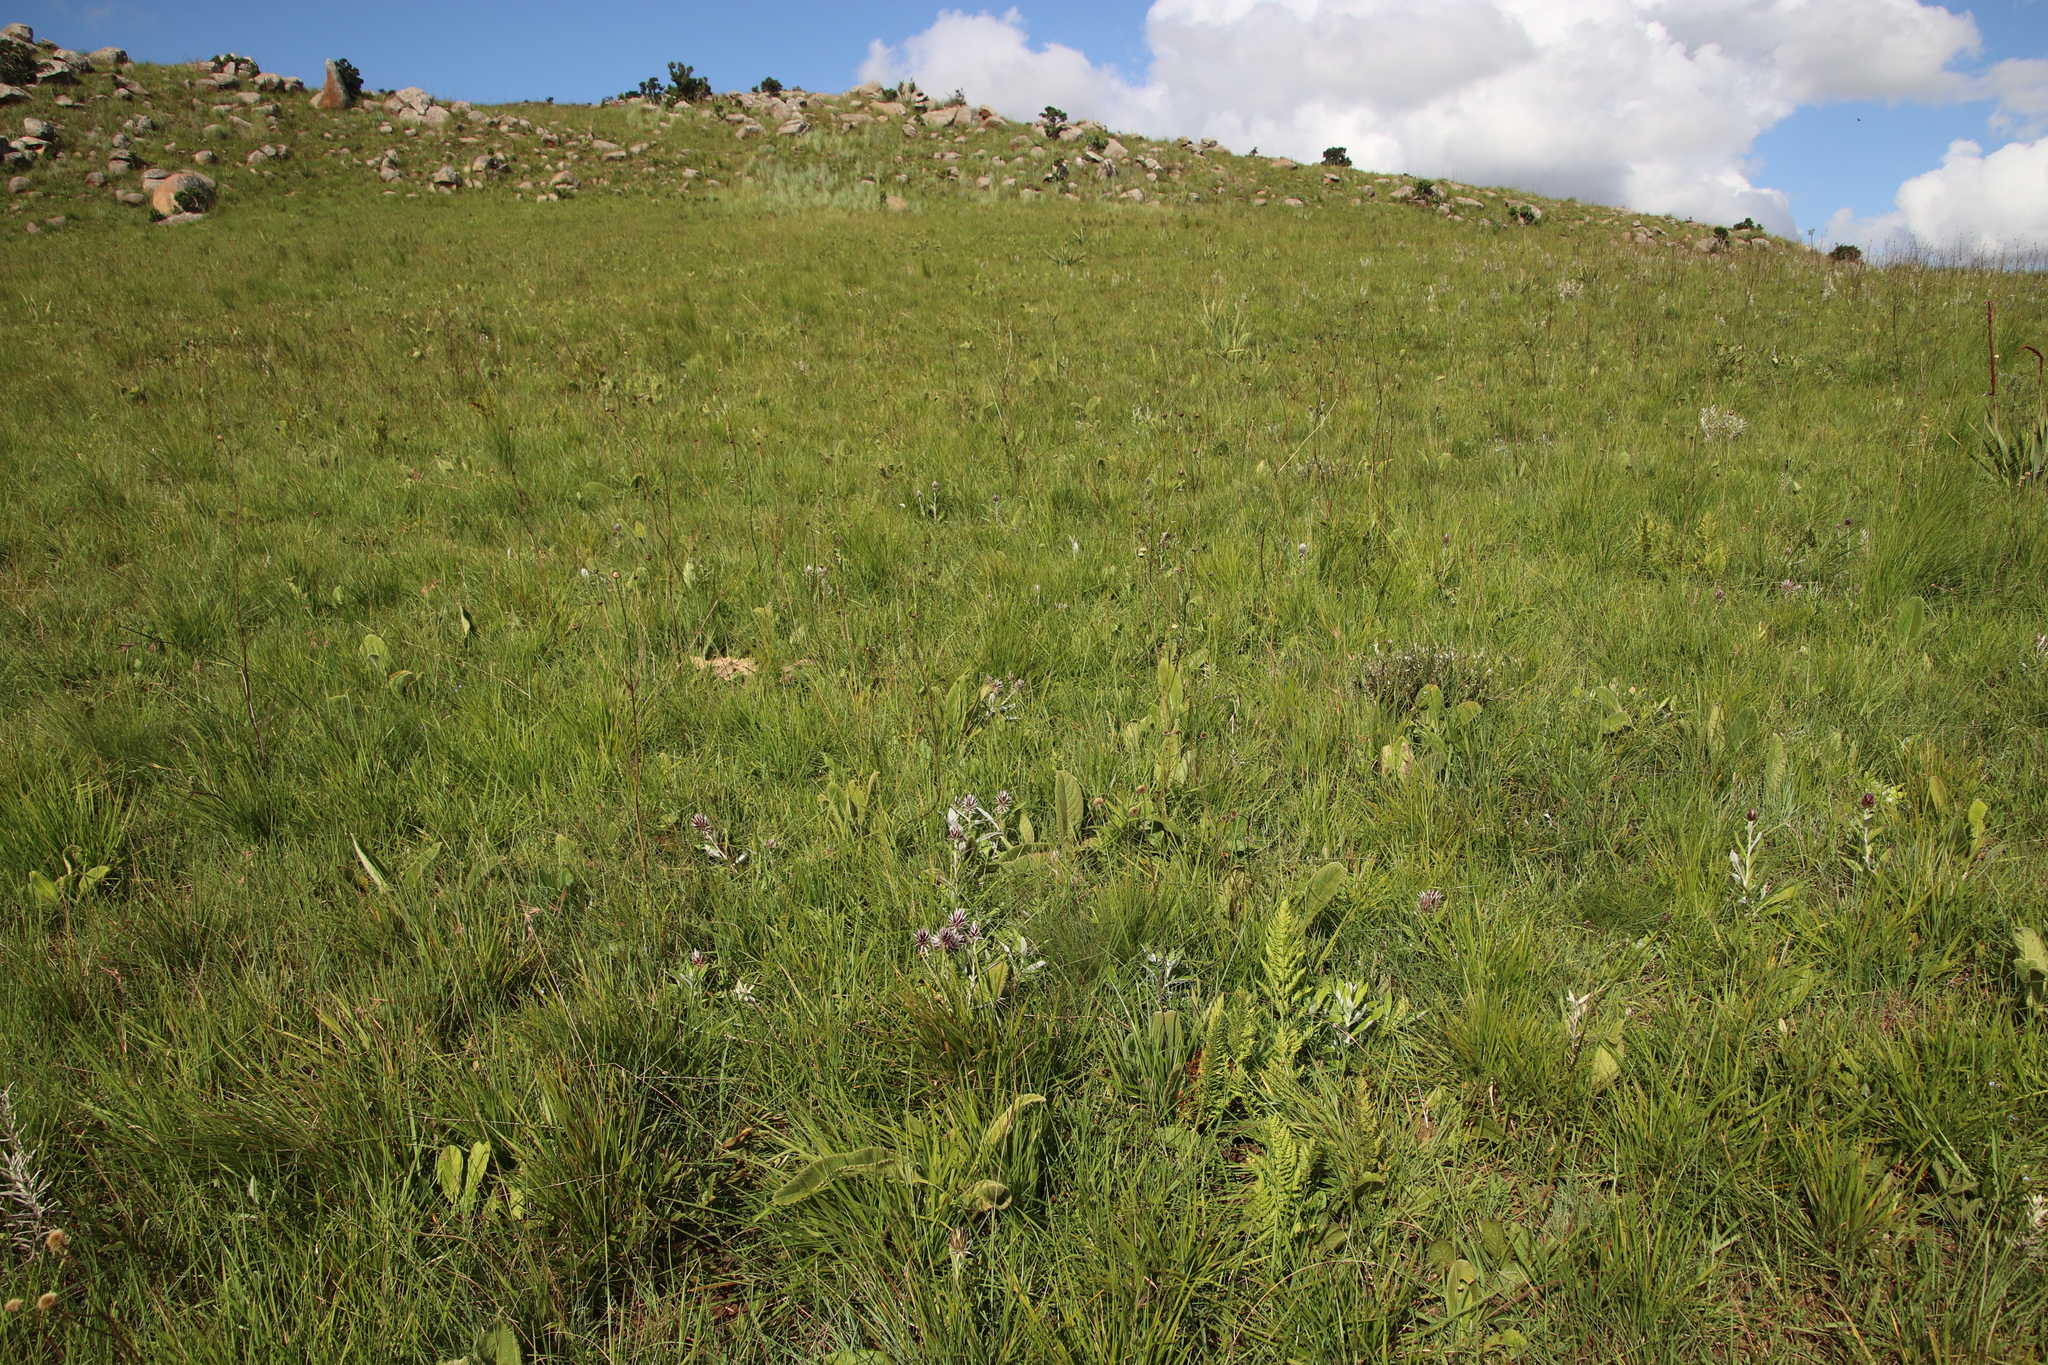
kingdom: Plantae
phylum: Tracheophyta
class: Magnoliopsida
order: Asterales
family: Asteraceae
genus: Macledium
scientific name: Macledium zeyheri
